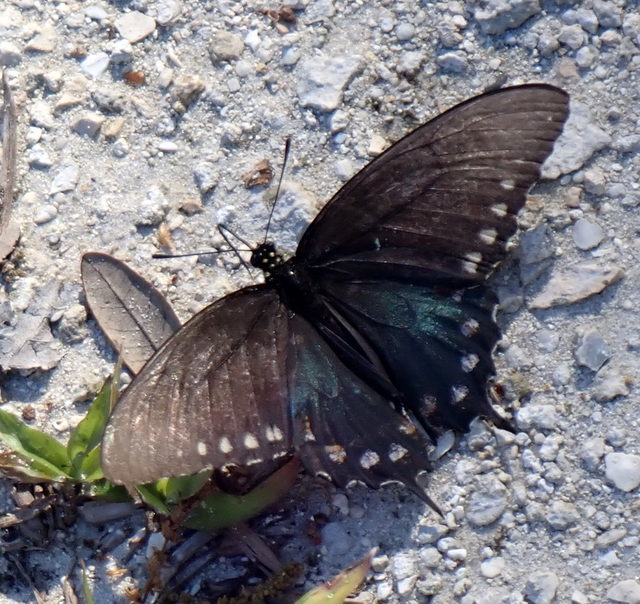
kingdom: Animalia
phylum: Arthropoda
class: Insecta
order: Lepidoptera
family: Papilionidae
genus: Battus
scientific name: Battus philenor
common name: Pipevine swallowtail
